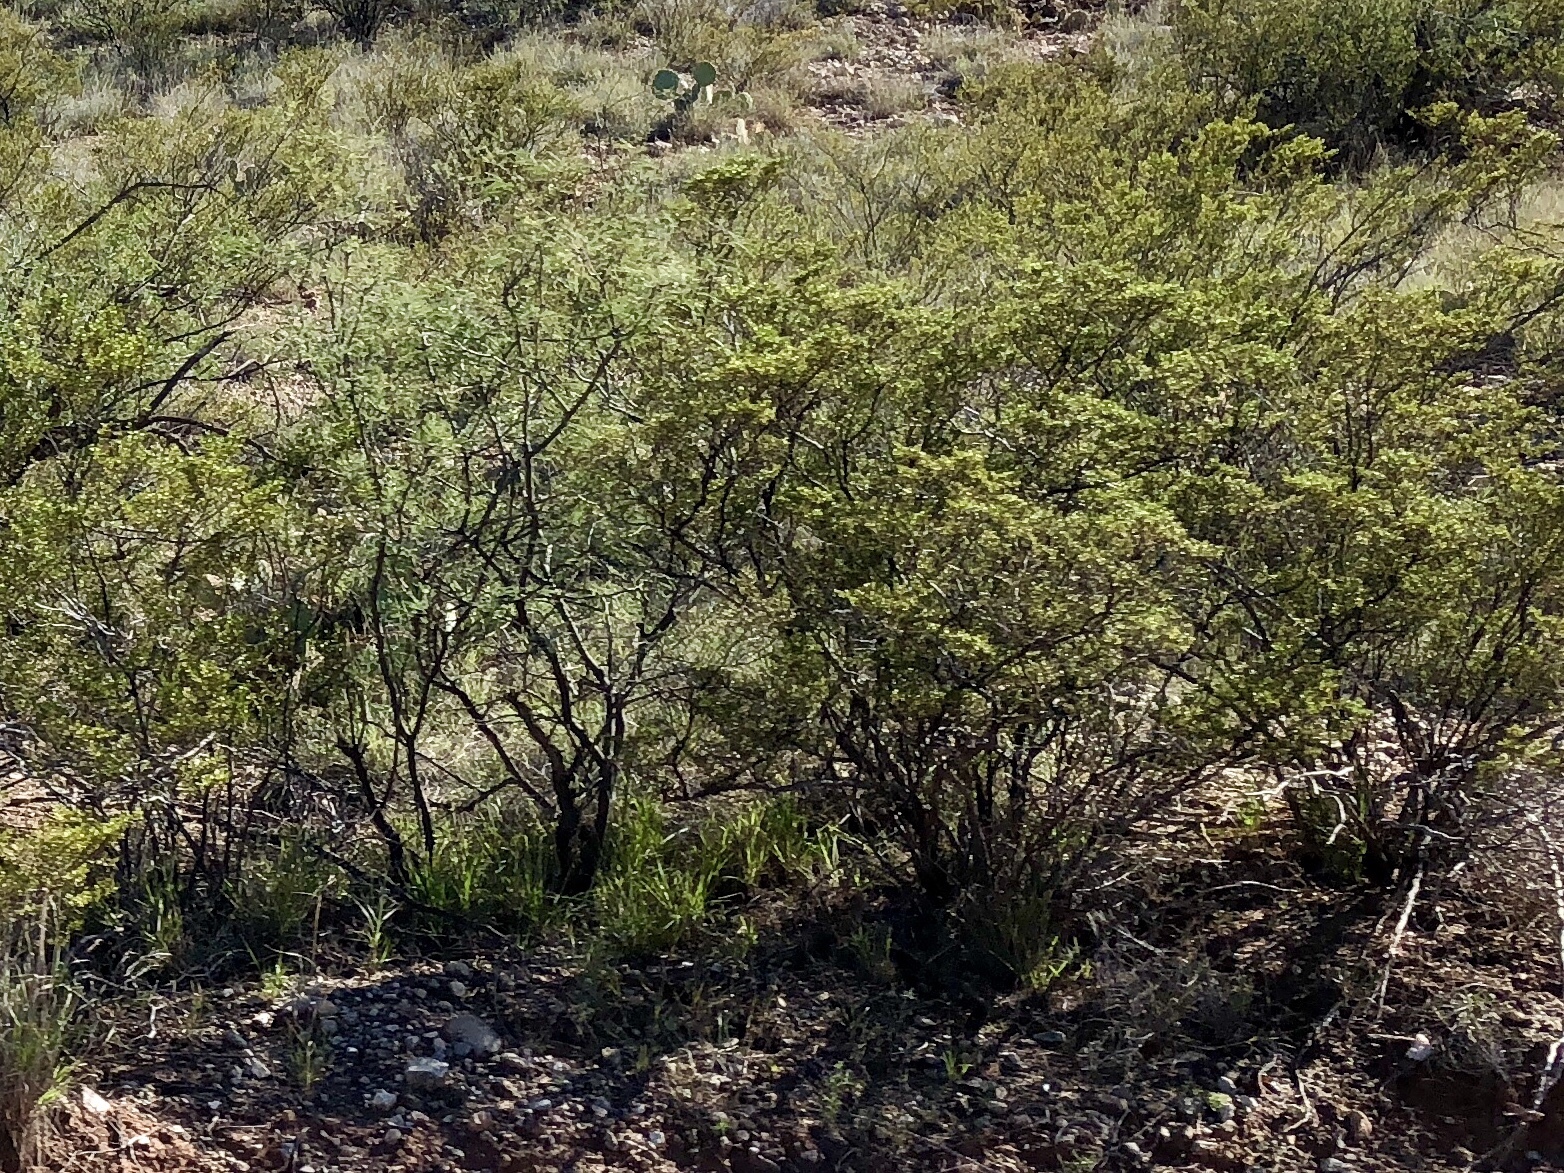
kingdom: Plantae
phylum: Tracheophyta
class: Magnoliopsida
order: Zygophyllales
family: Zygophyllaceae
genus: Larrea
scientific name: Larrea tridentata
